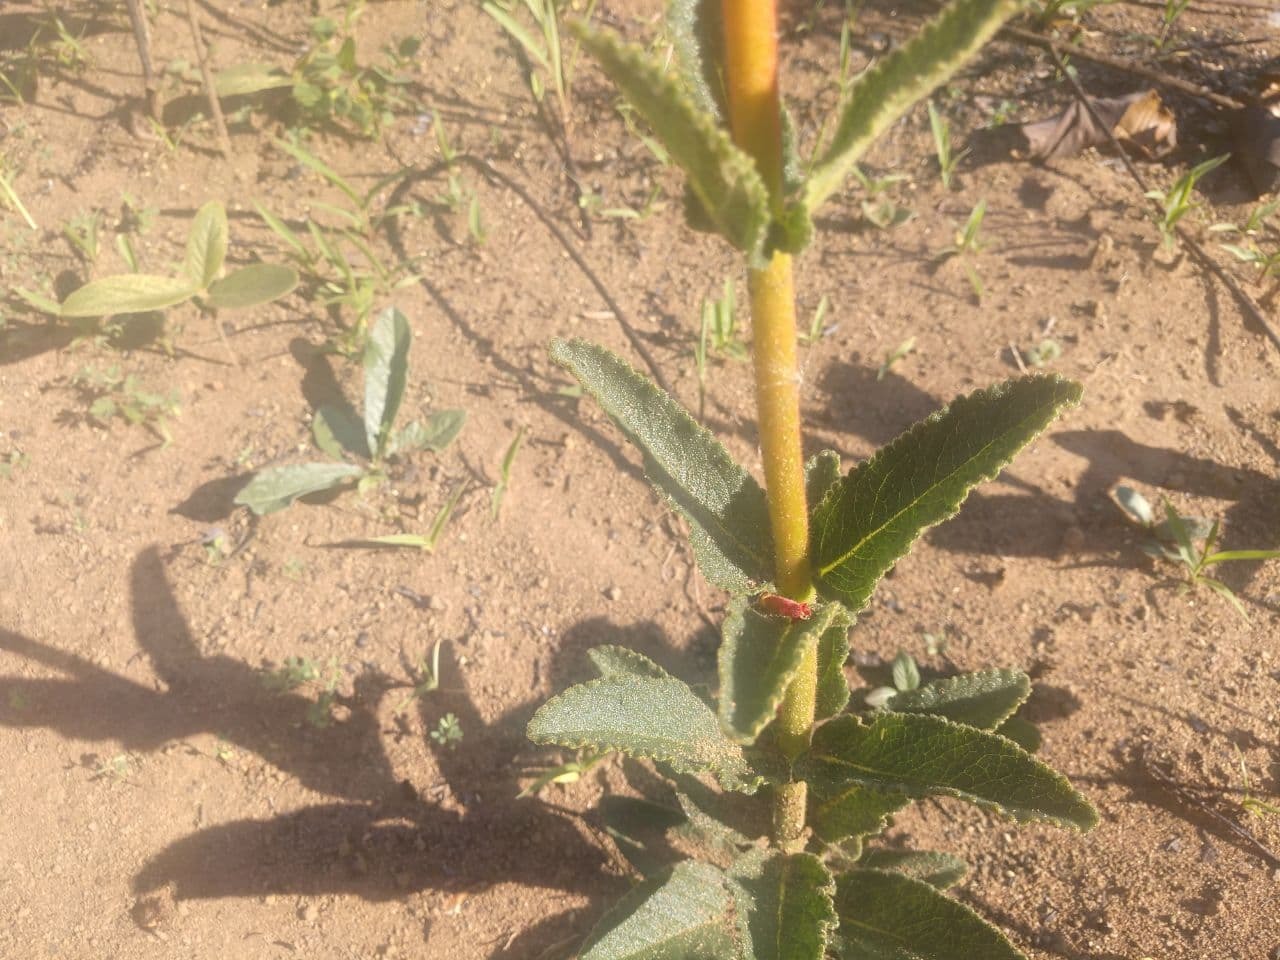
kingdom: Plantae
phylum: Tracheophyta
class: Magnoliopsida
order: Lamiales
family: Gesneriaceae
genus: Sinningia
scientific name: Sinningia allagophylla
